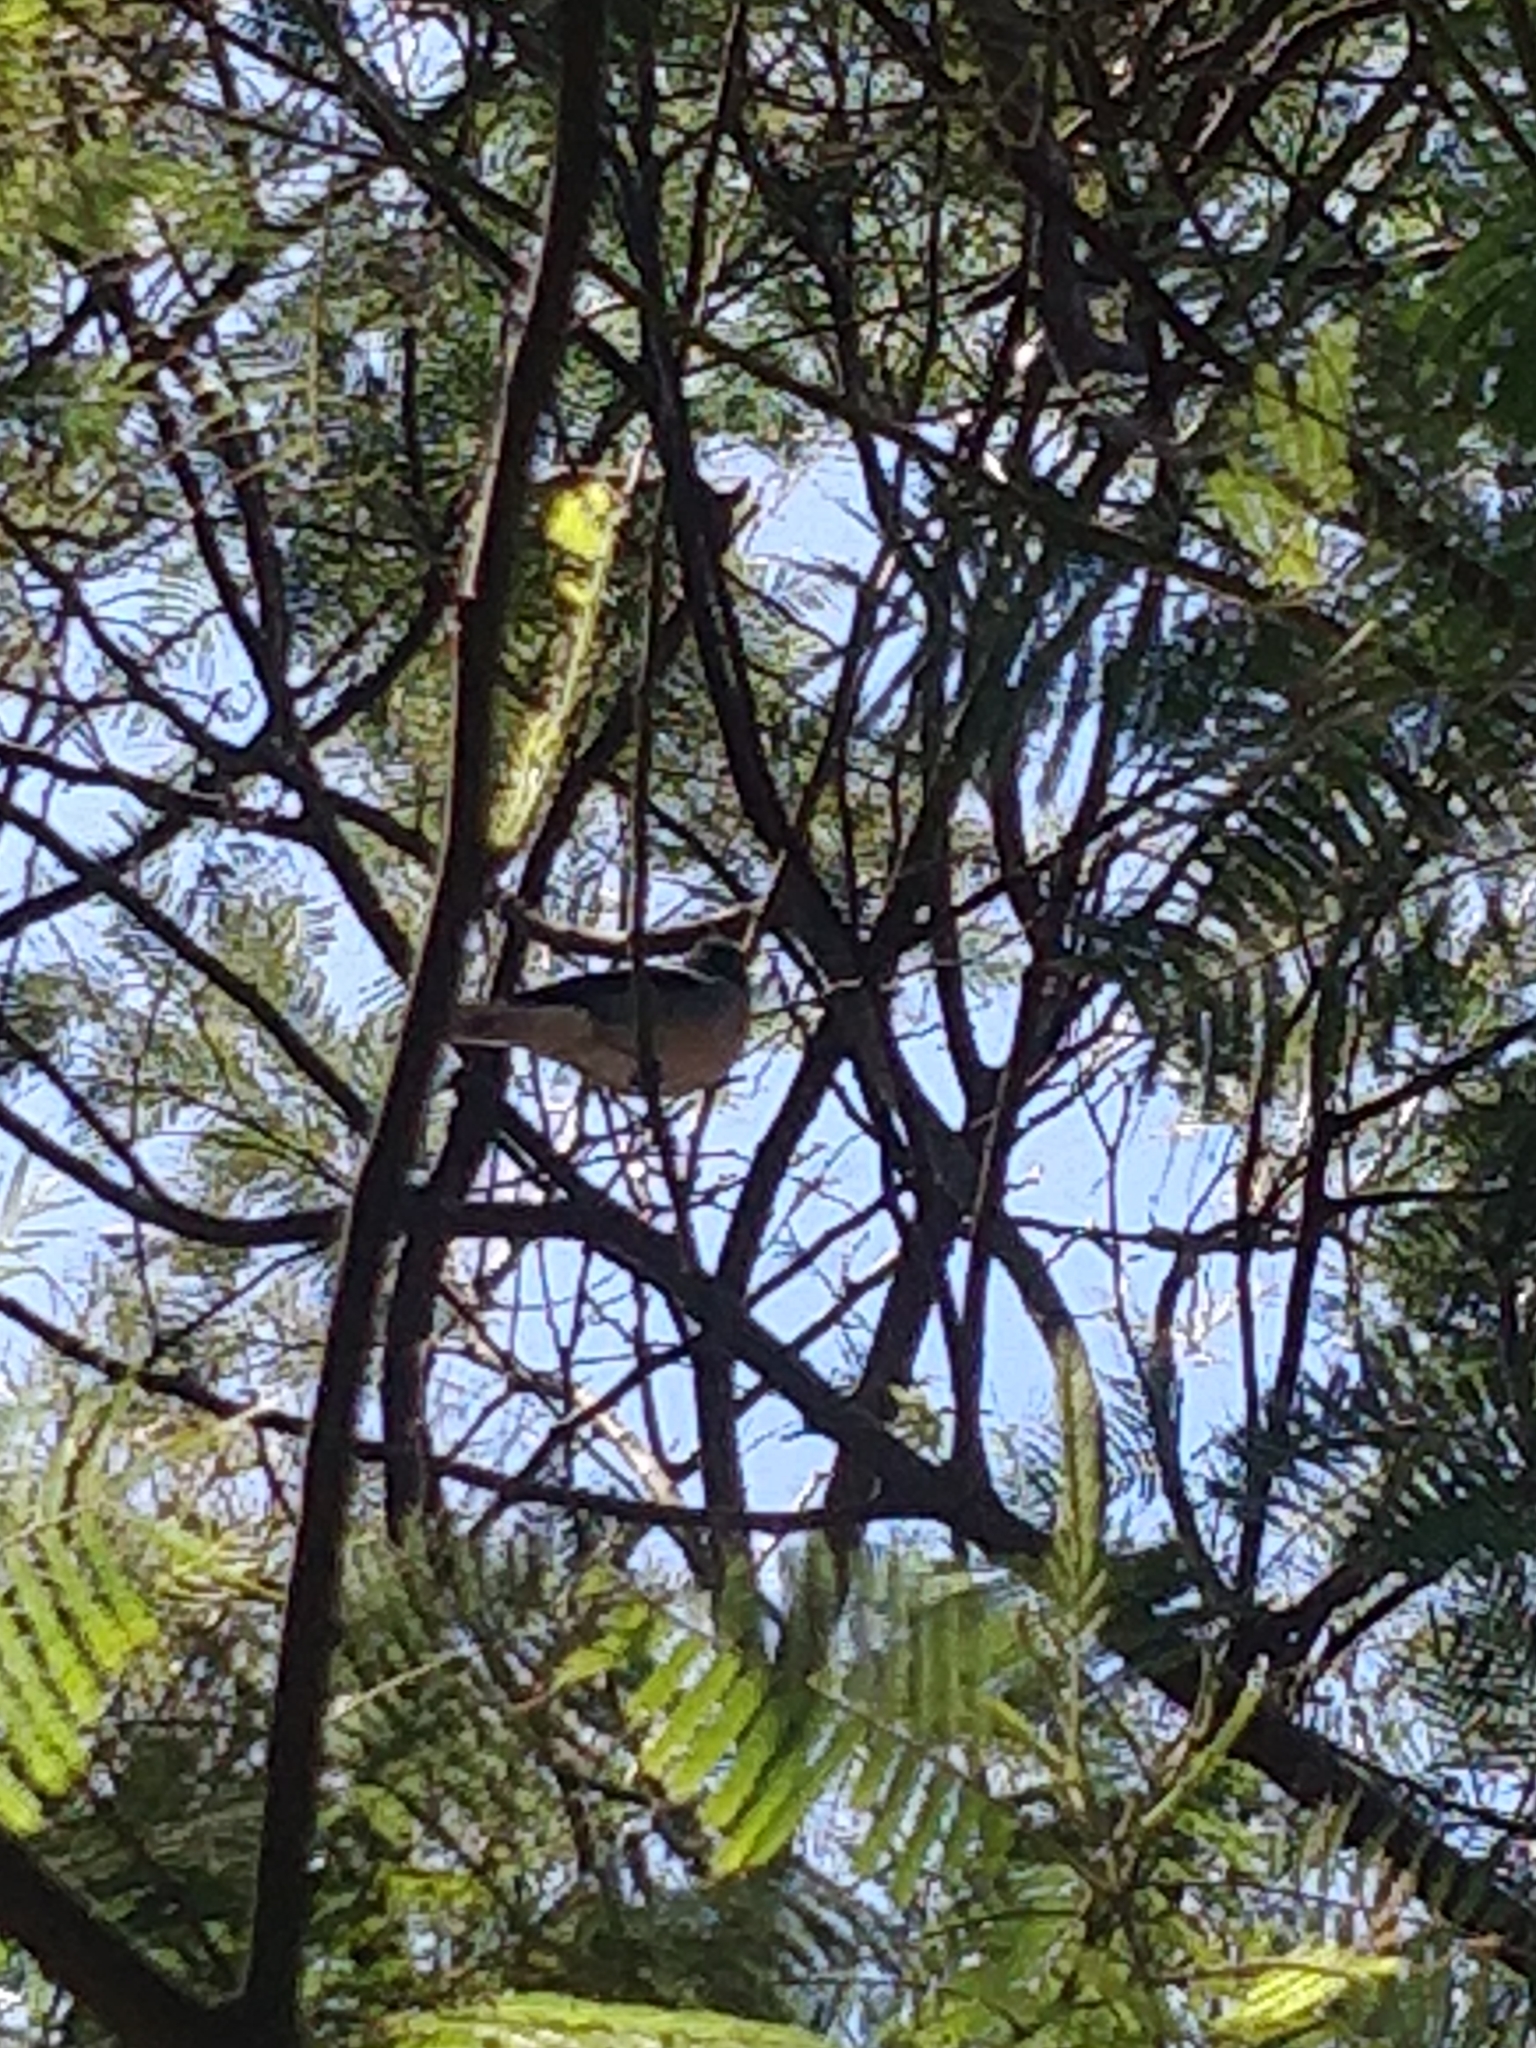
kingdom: Animalia
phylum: Chordata
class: Aves
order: Passeriformes
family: Fringillidae
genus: Fringilla
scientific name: Fringilla maderensis
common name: Madeira chaffinch
